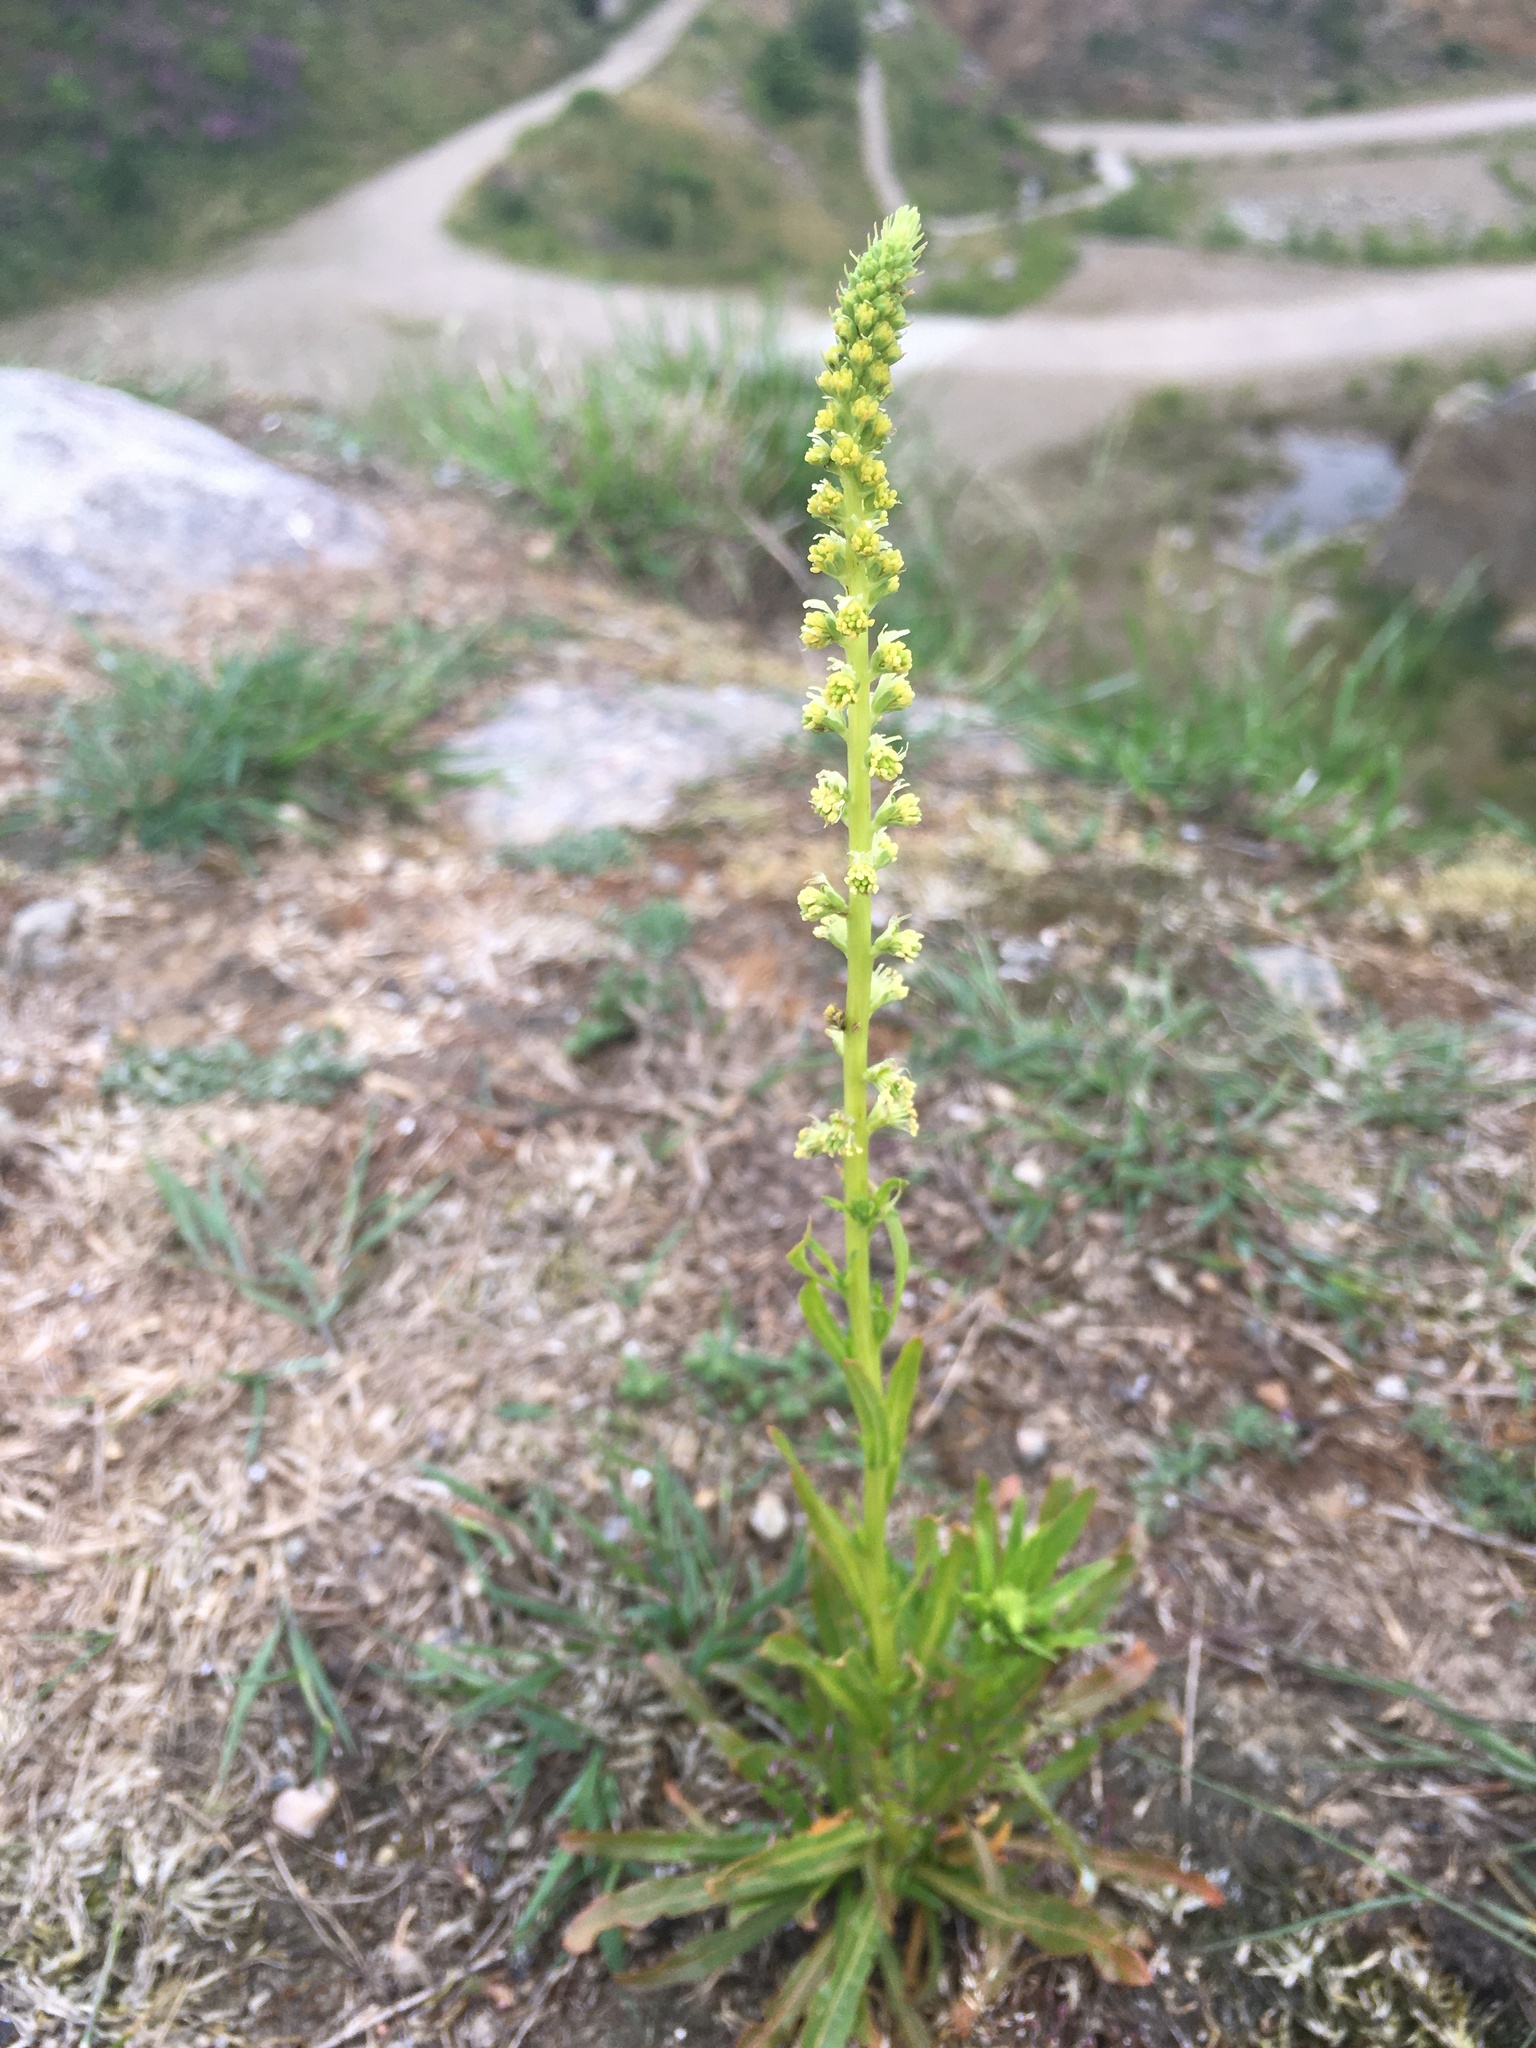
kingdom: Plantae
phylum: Tracheophyta
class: Magnoliopsida
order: Brassicales
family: Resedaceae
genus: Reseda
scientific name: Reseda luteola
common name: Weld
